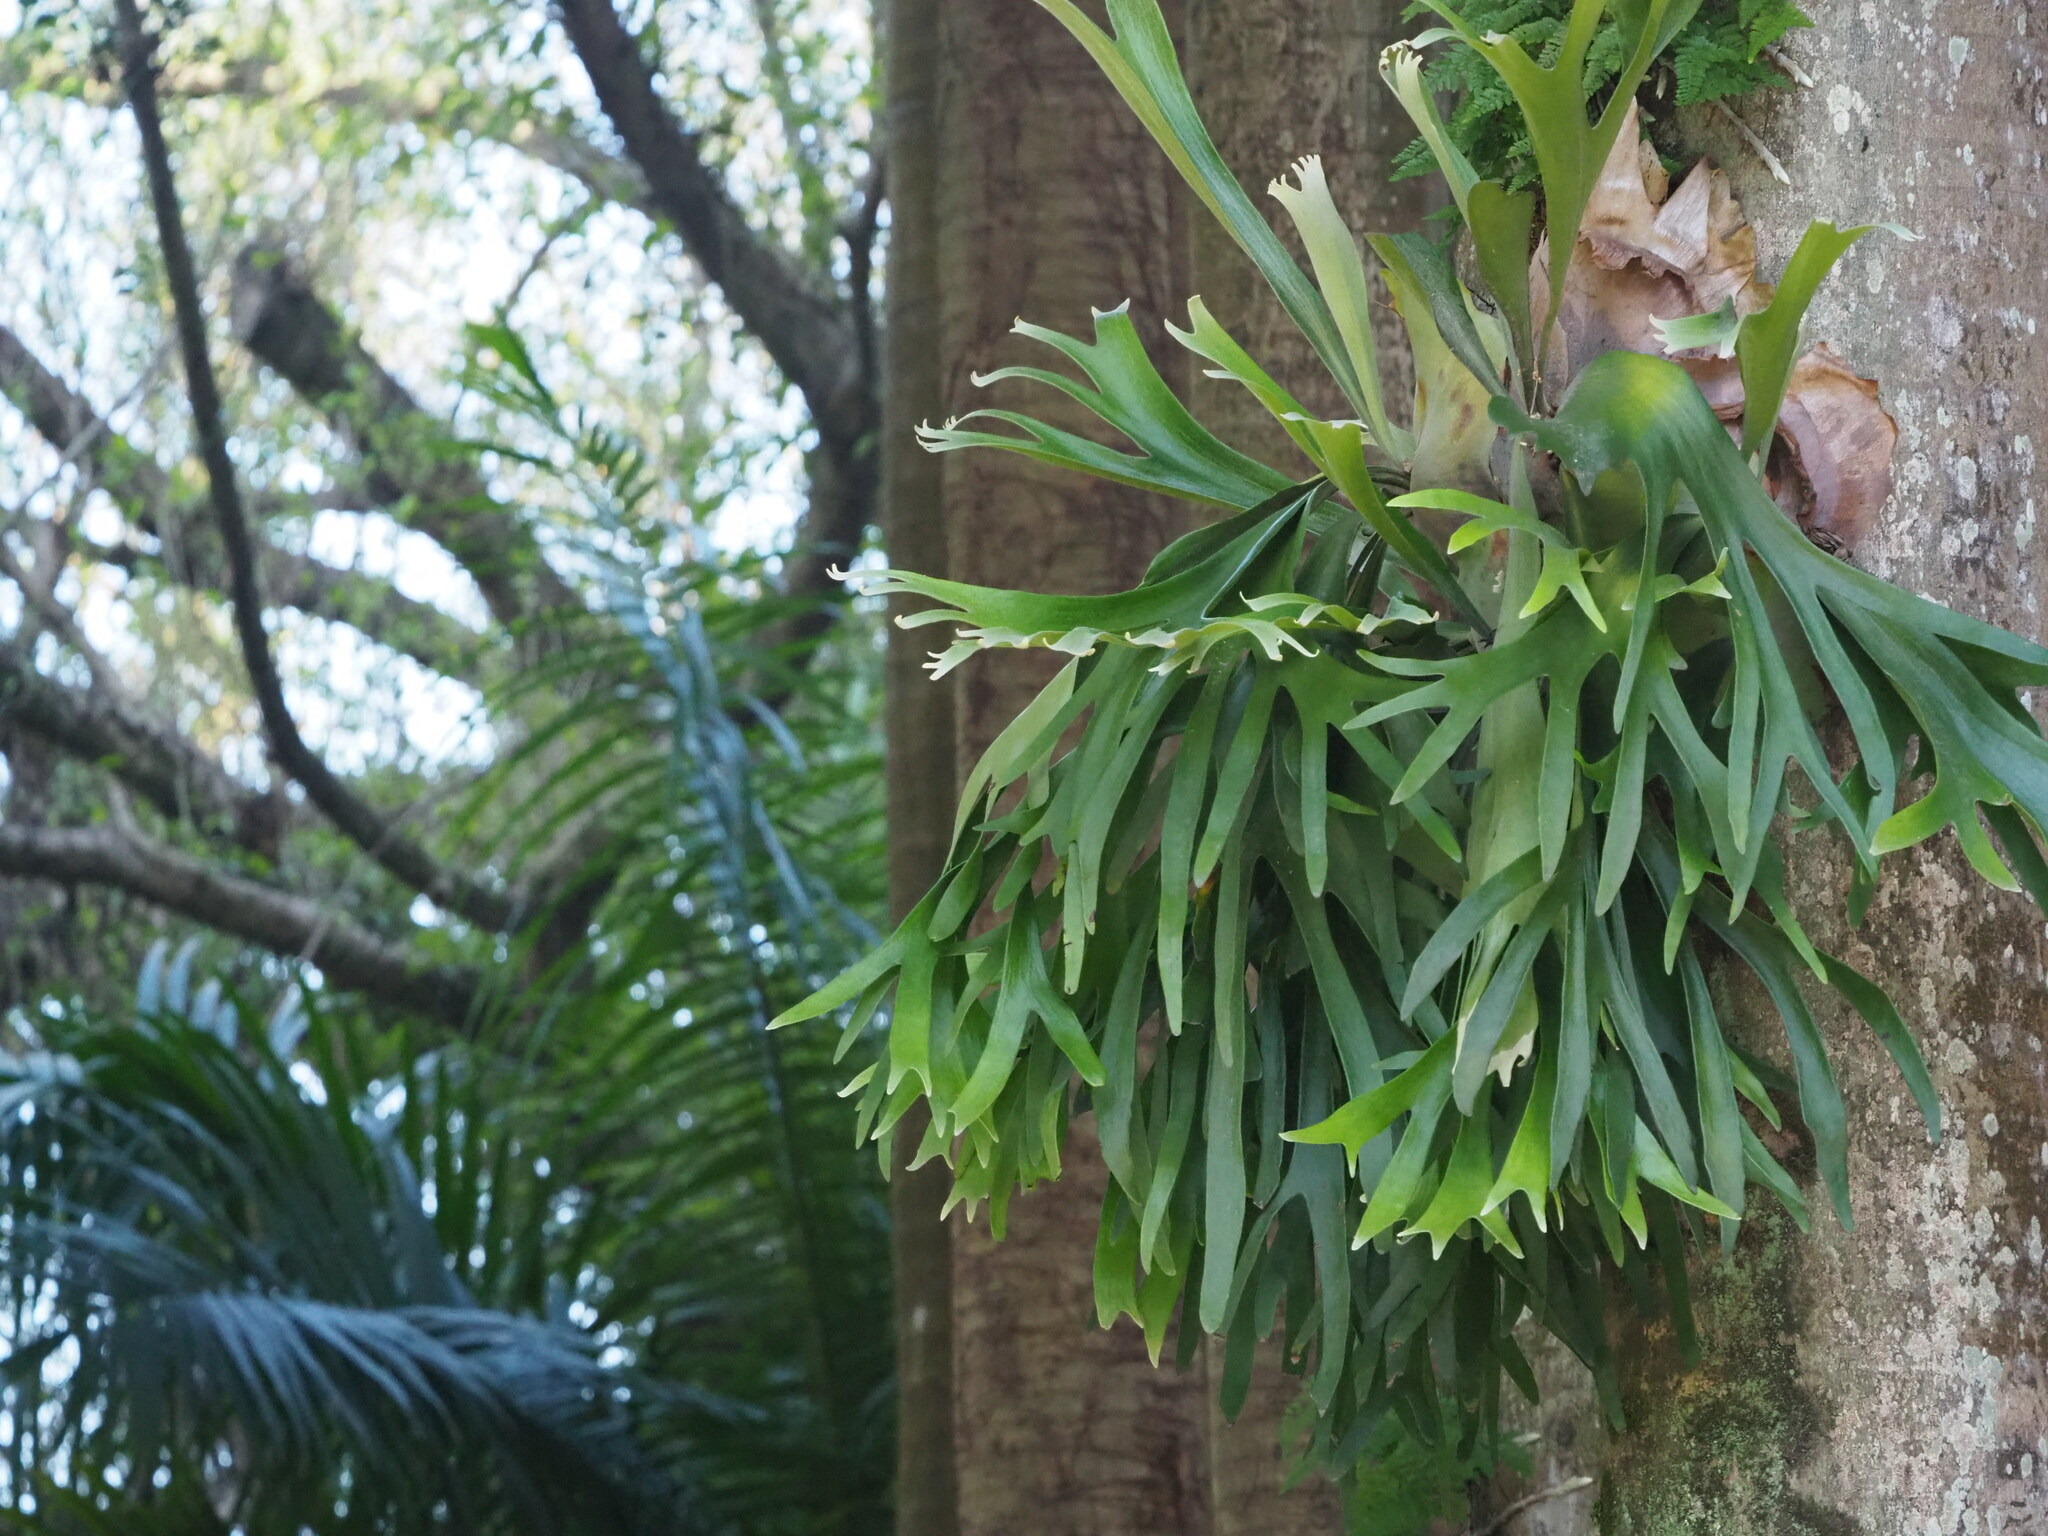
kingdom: Plantae
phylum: Tracheophyta
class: Polypodiopsida
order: Polypodiales
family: Polypodiaceae
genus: Platycerium
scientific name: Platycerium bifurcatum
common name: Elkhorn fern
